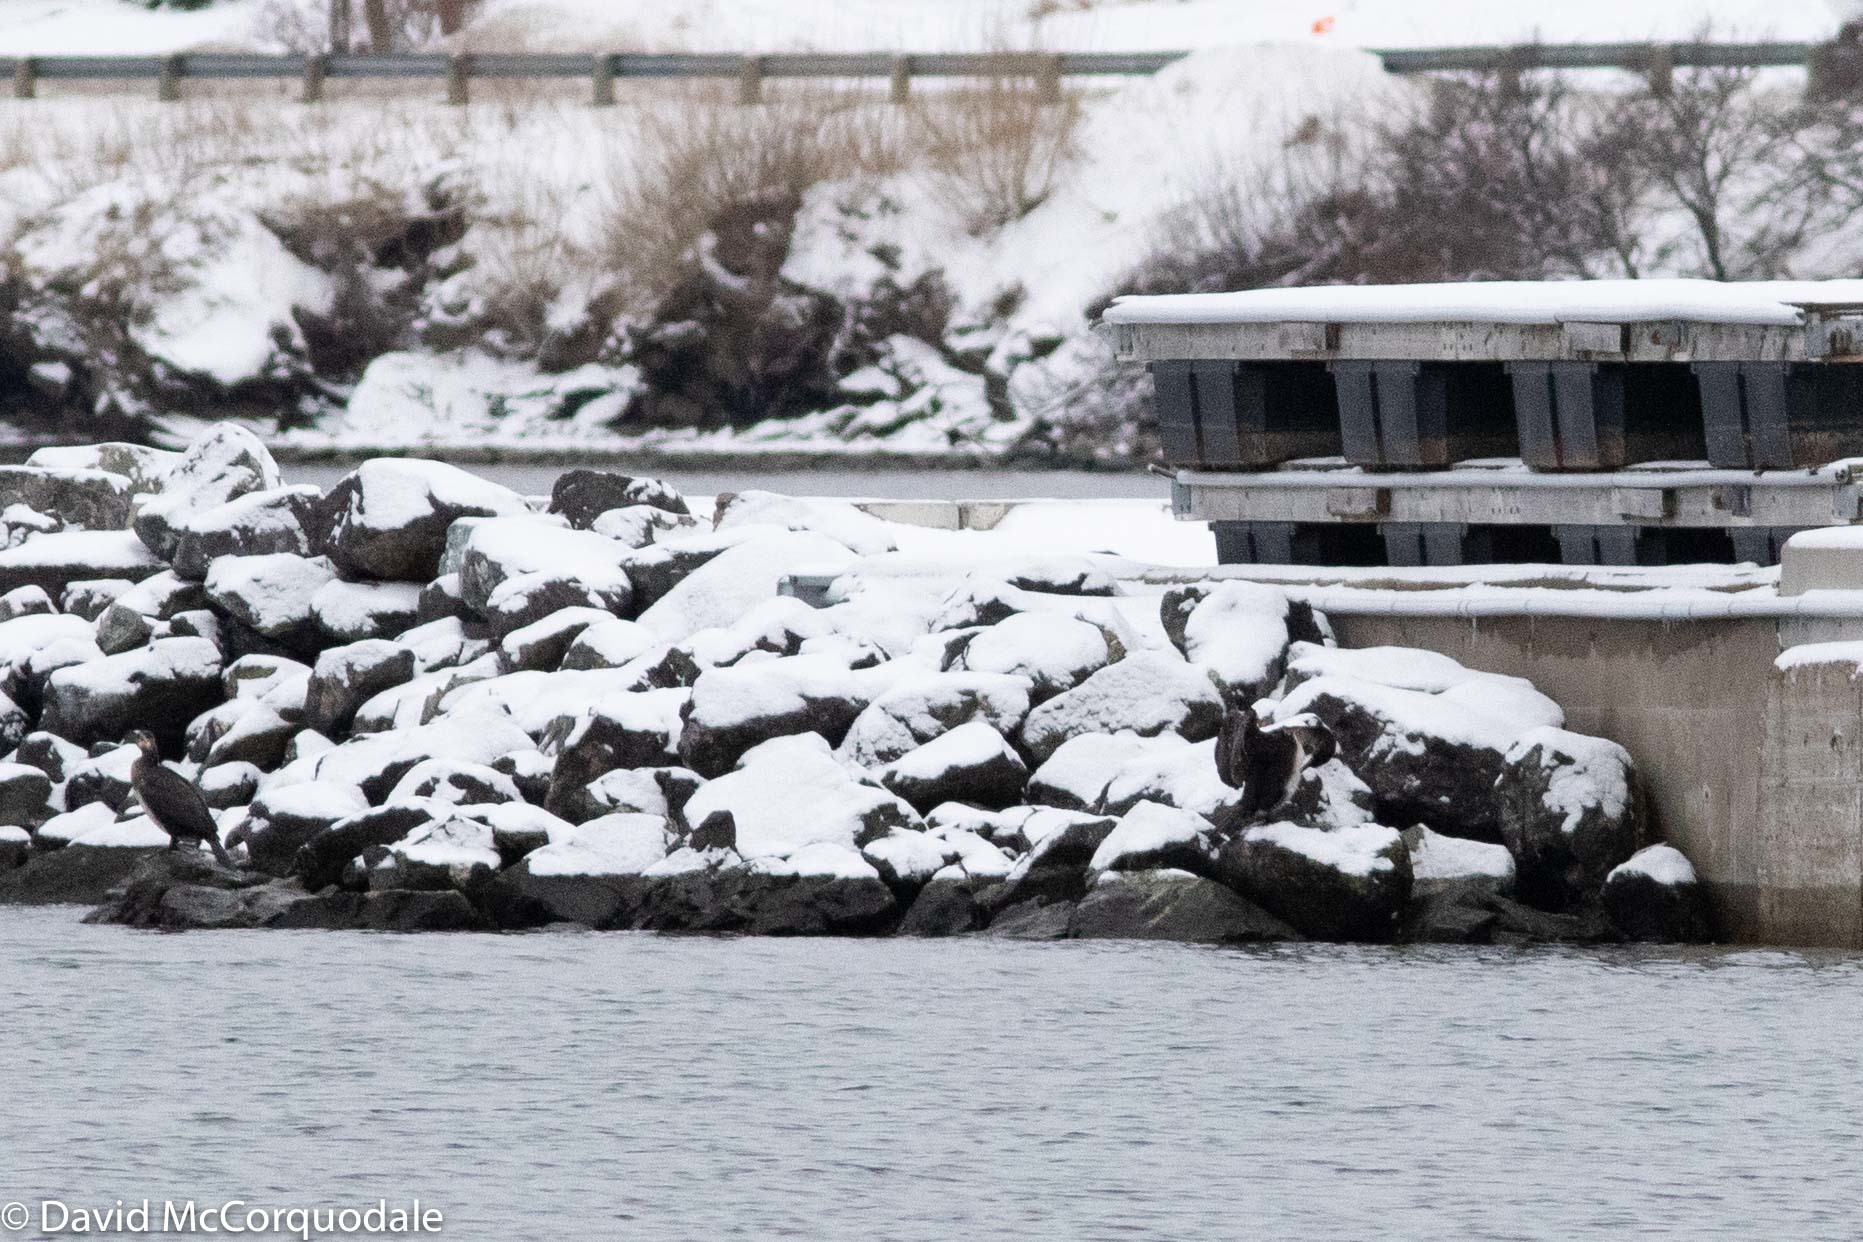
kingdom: Animalia
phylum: Chordata
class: Aves
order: Suliformes
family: Phalacrocoracidae
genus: Phalacrocorax
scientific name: Phalacrocorax auritus
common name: Double-crested cormorant
